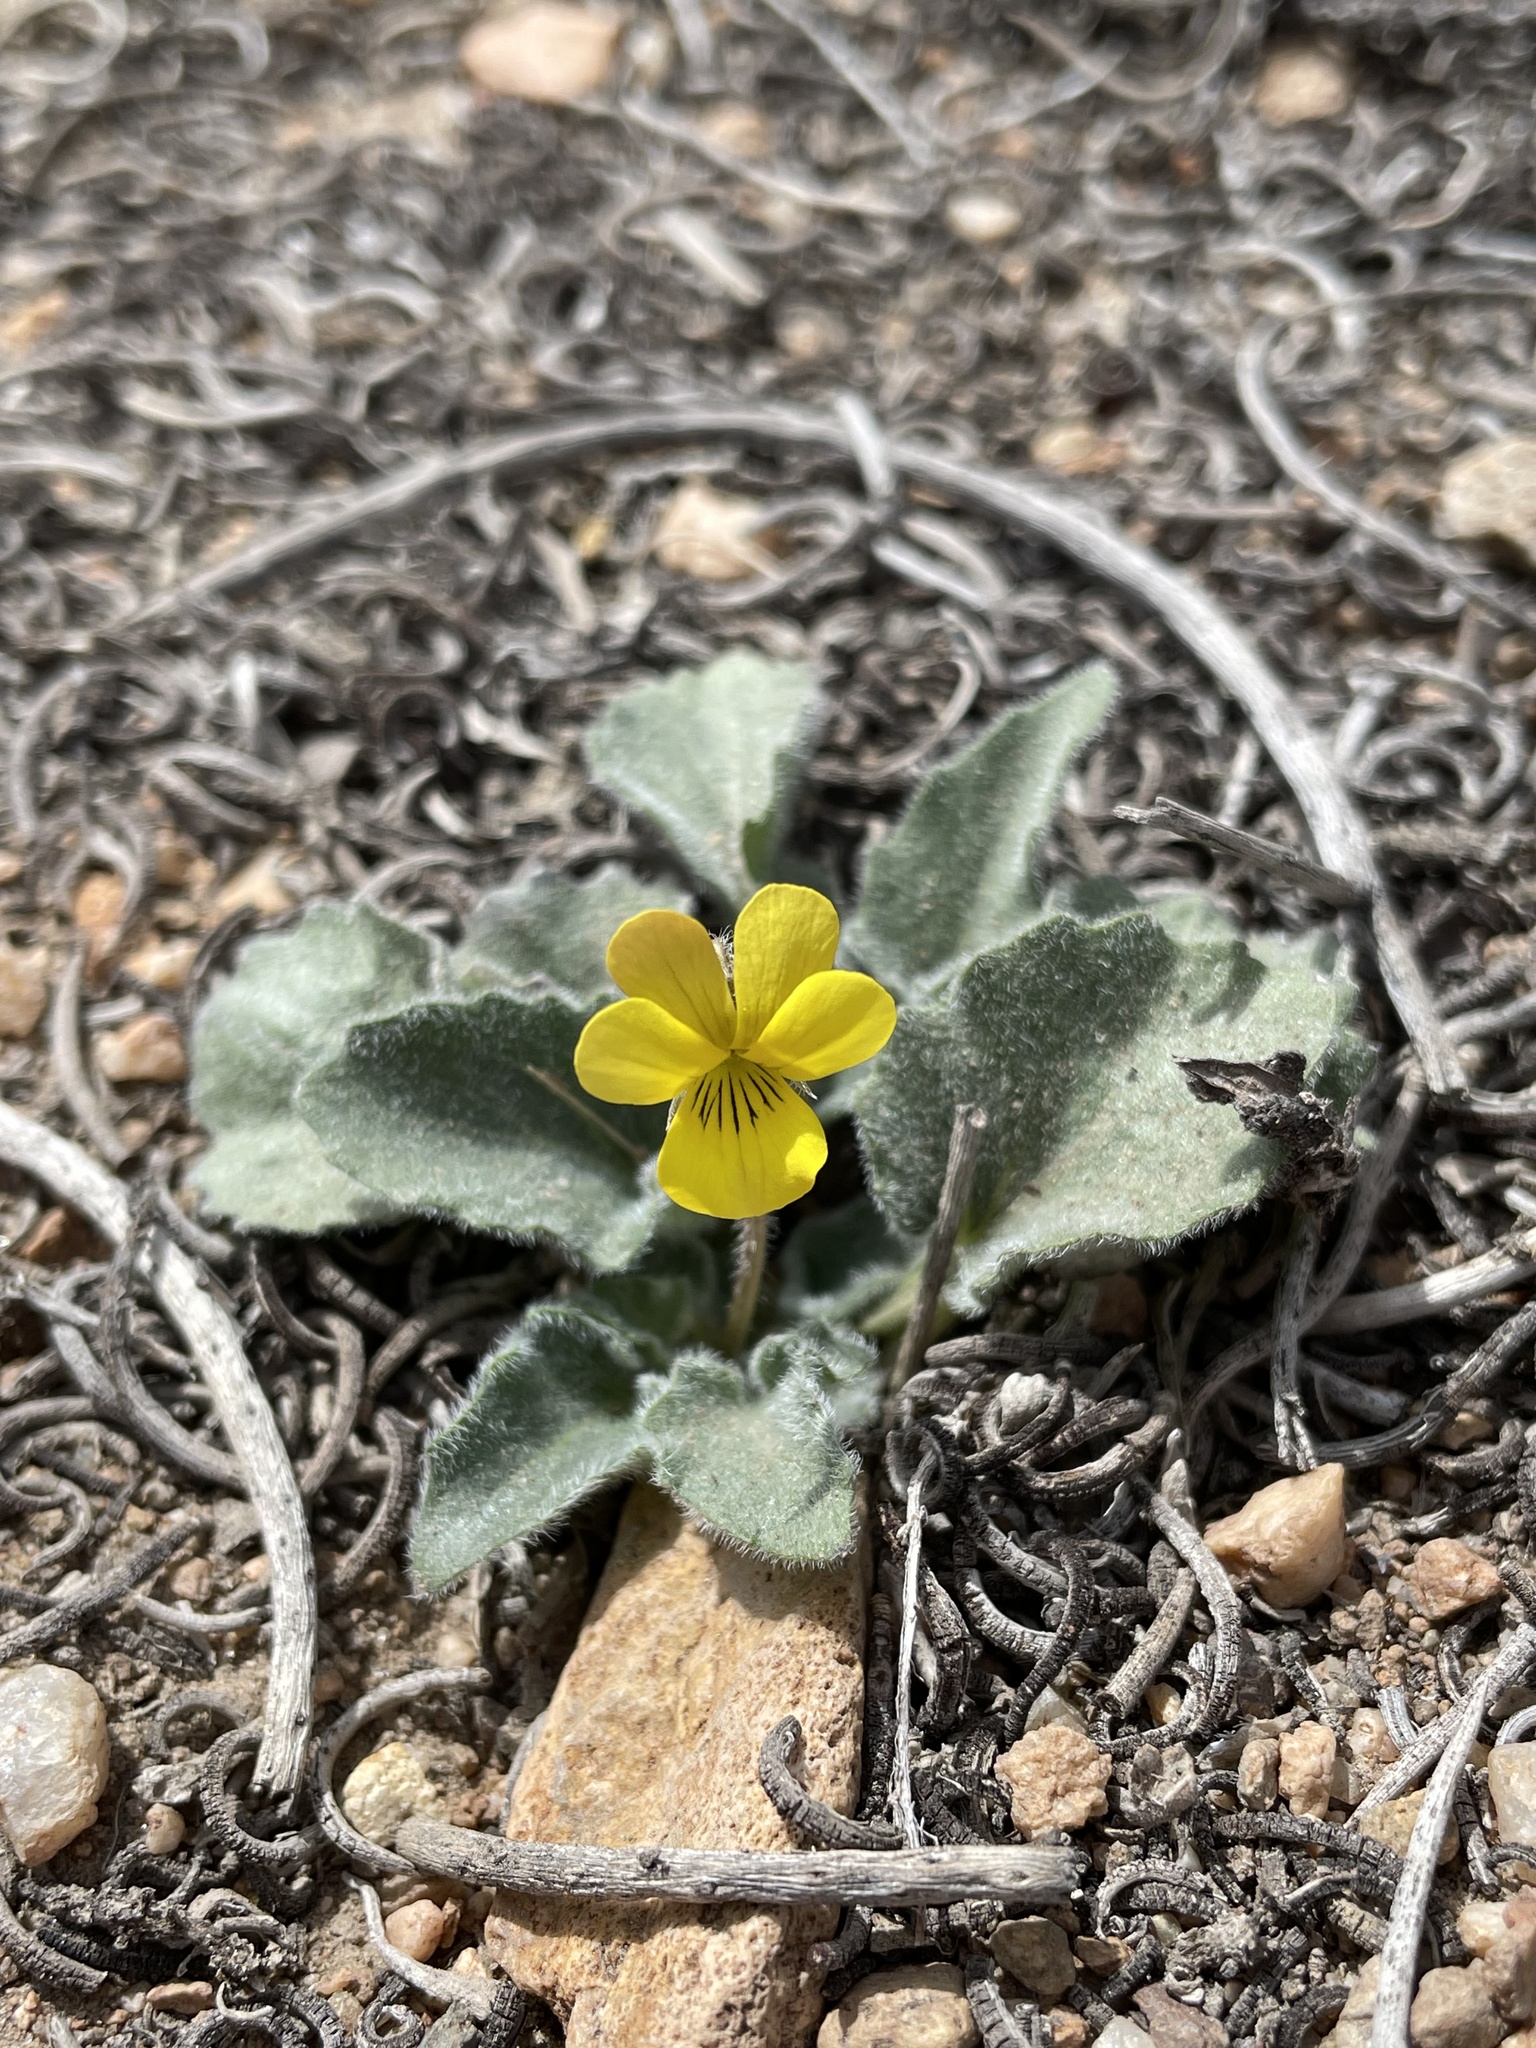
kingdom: Plantae
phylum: Tracheophyta
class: Magnoliopsida
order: Malpighiales
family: Violaceae
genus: Viola
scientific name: Viola aurea
